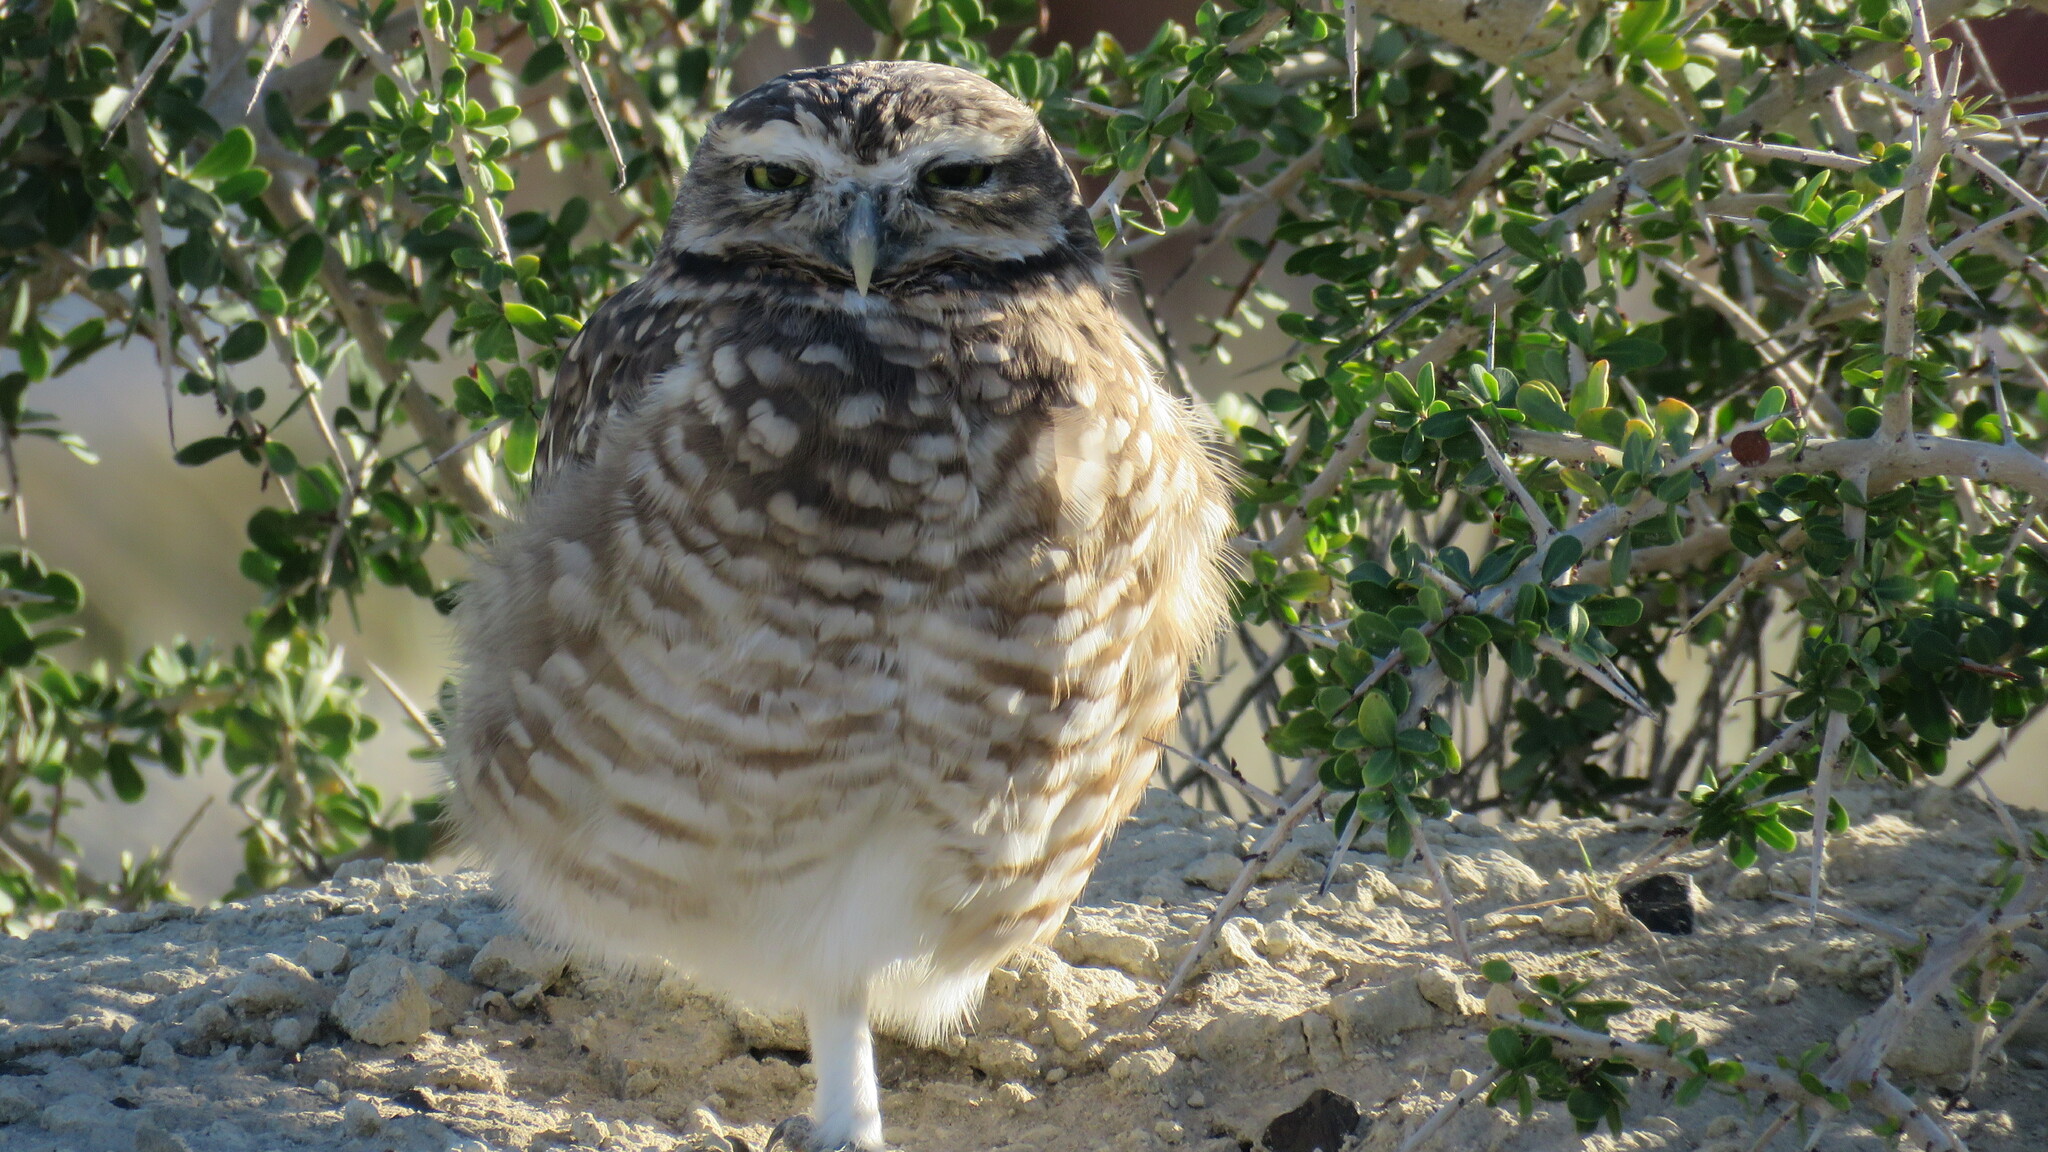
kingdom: Animalia
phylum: Chordata
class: Aves
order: Strigiformes
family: Strigidae
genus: Athene
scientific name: Athene cunicularia
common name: Burrowing owl
